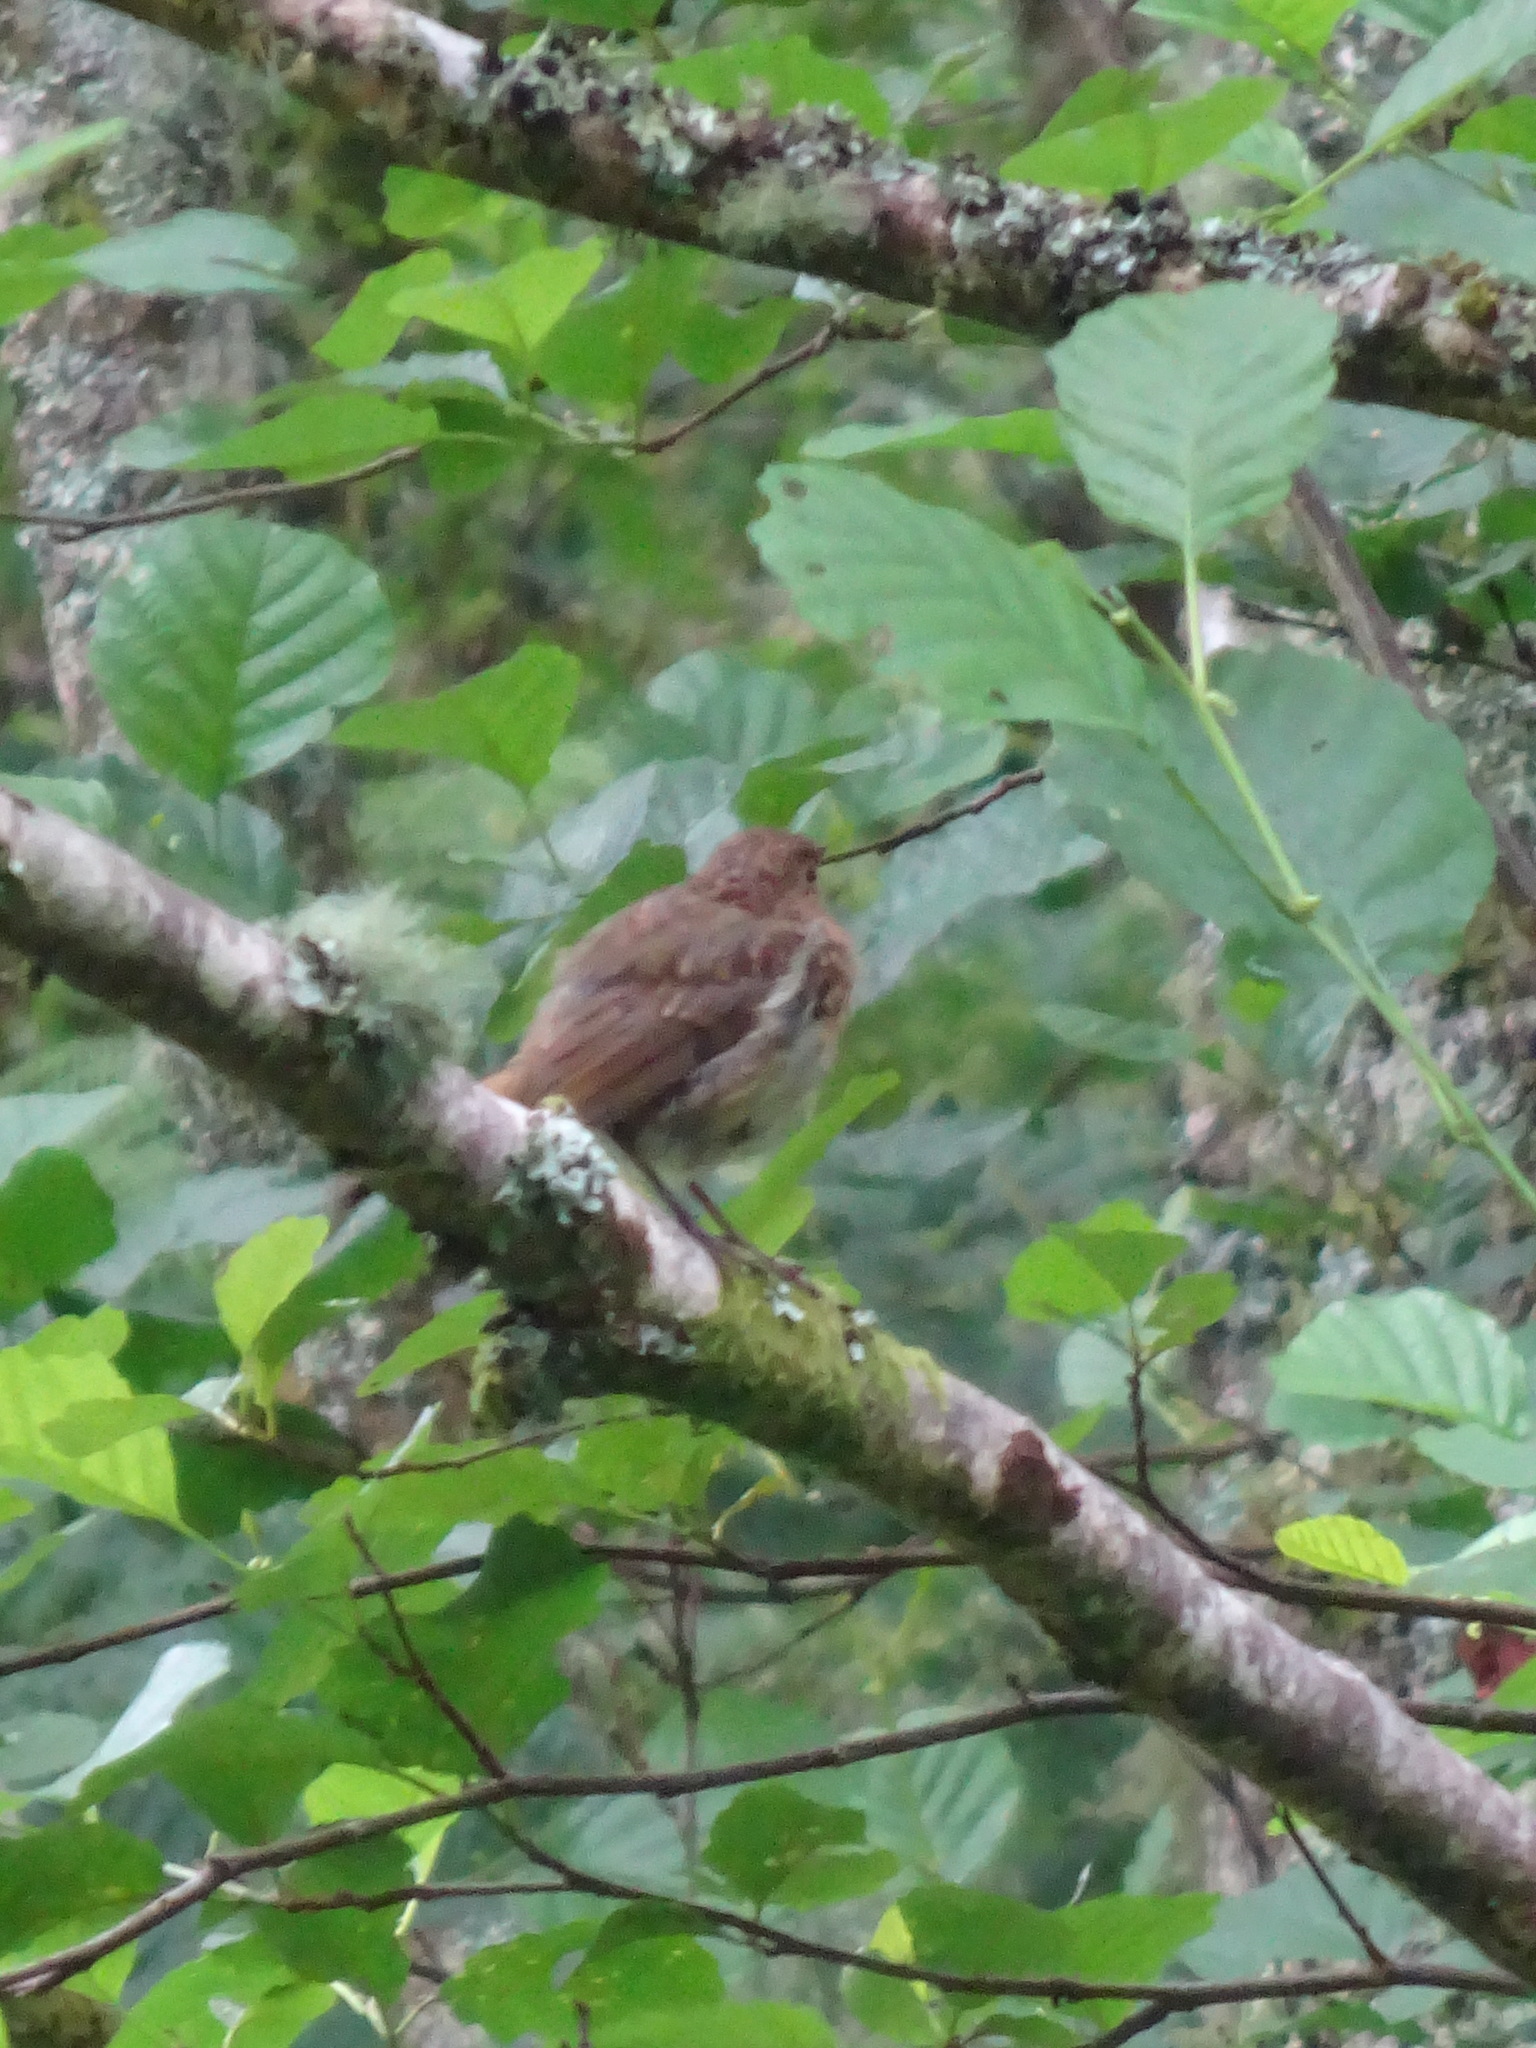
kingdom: Animalia
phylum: Chordata
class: Aves
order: Passeriformes
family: Muscicapidae
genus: Erithacus
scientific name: Erithacus rubecula
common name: European robin
